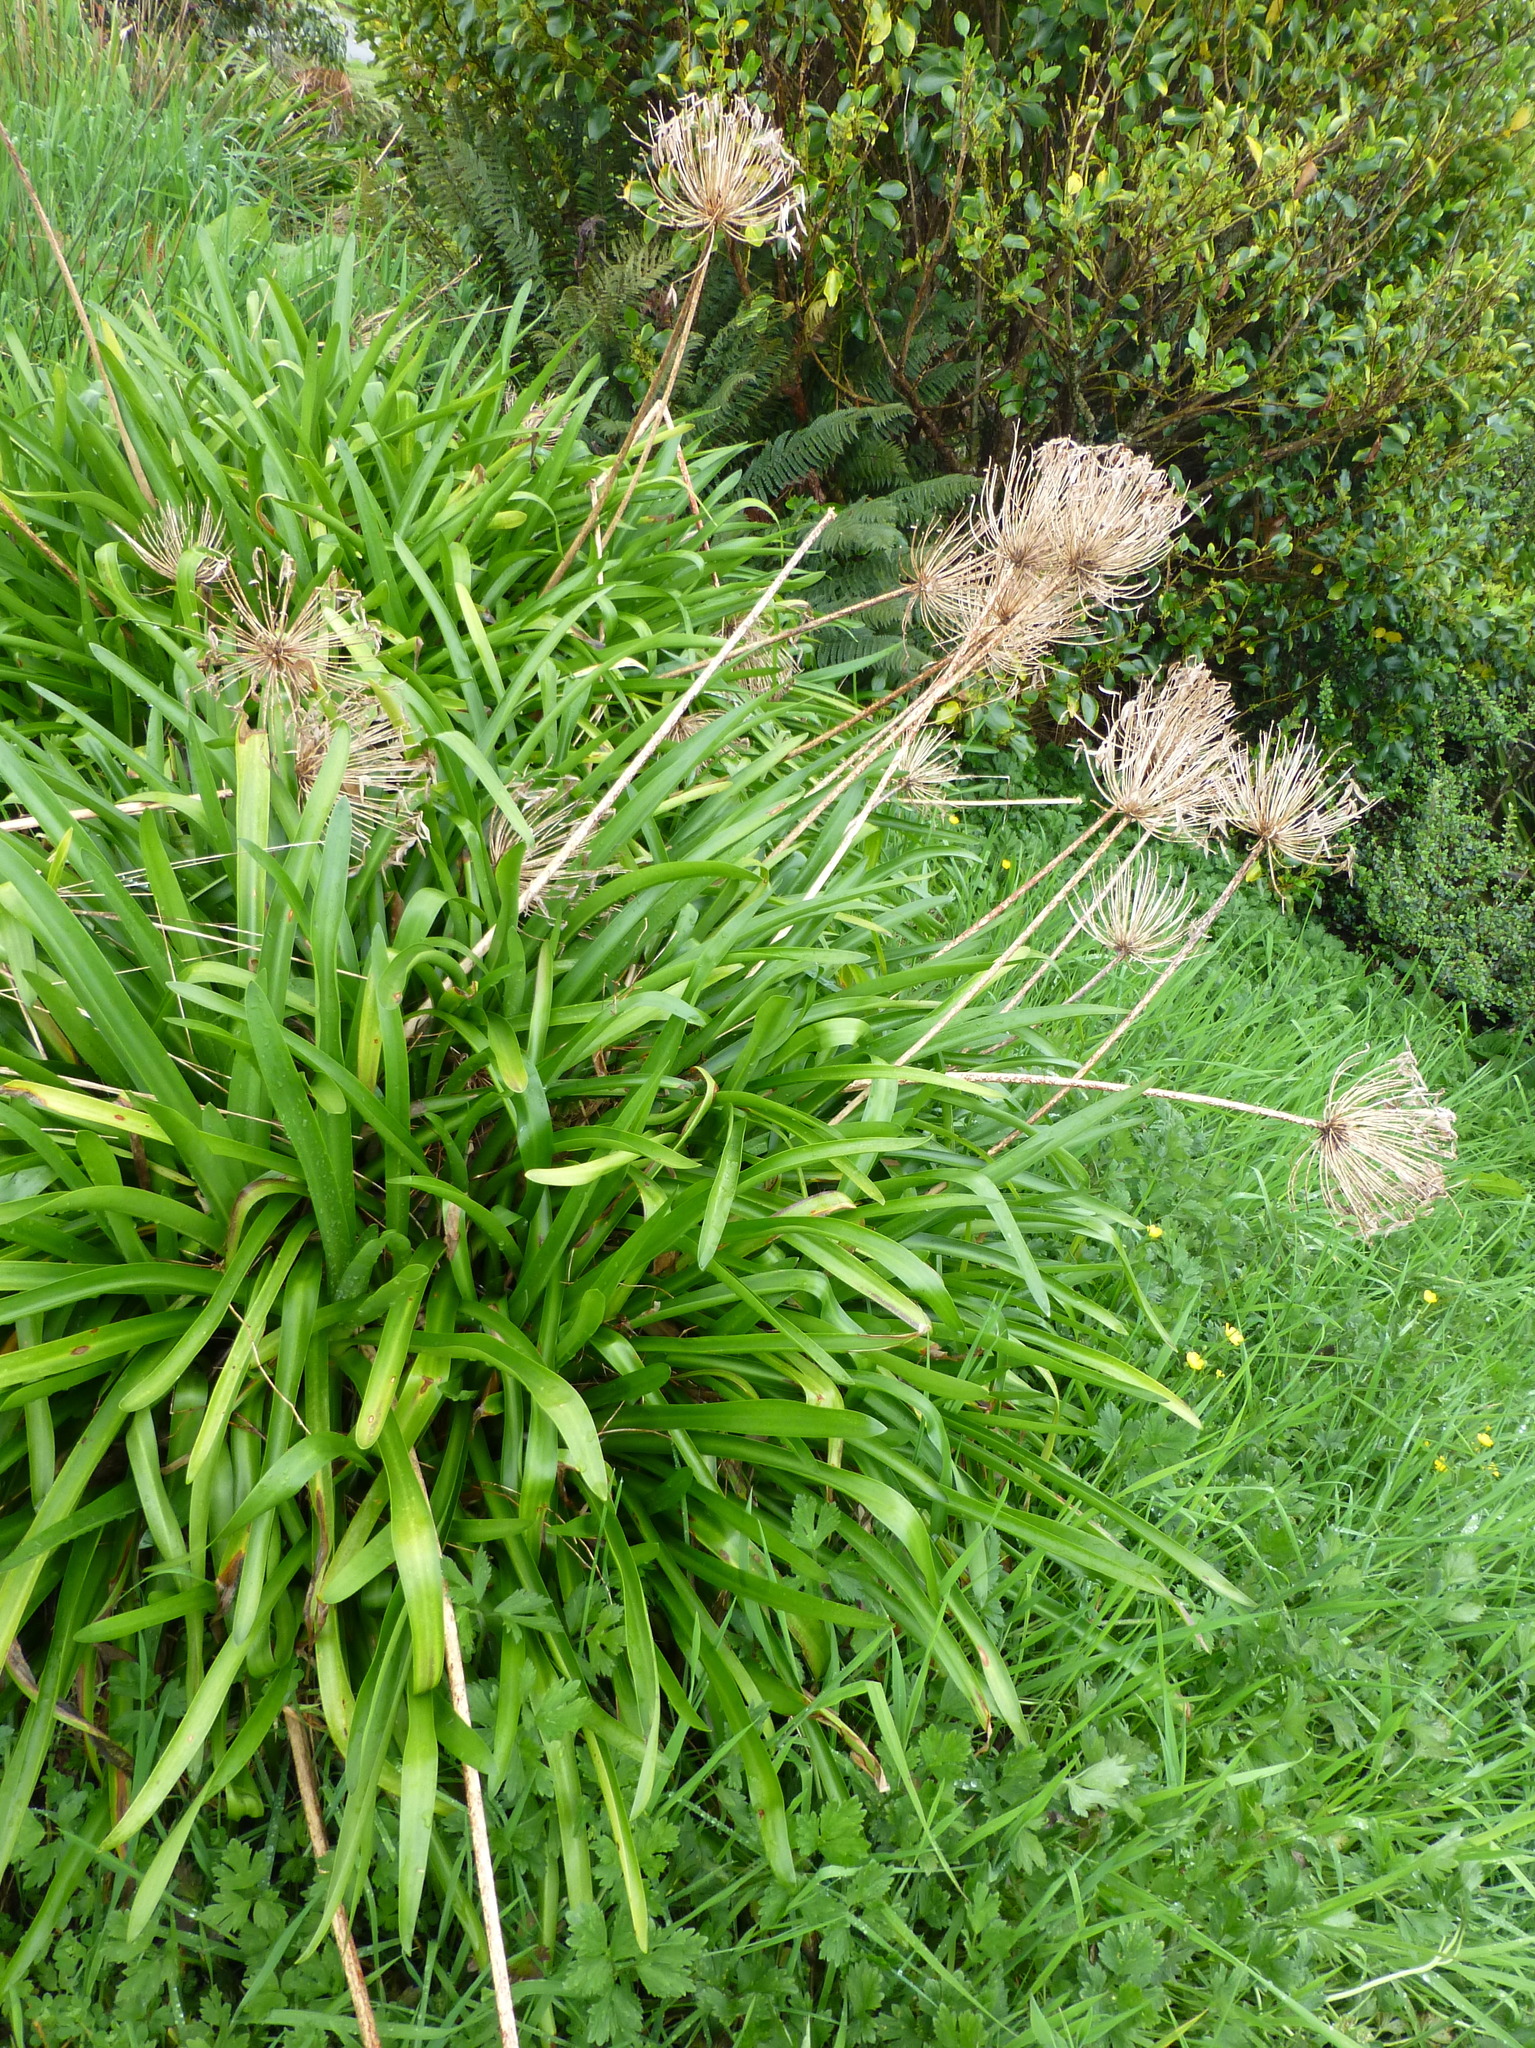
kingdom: Plantae
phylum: Tracheophyta
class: Liliopsida
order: Asparagales
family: Amaryllidaceae
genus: Agapanthus
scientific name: Agapanthus praecox
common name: African-lily
